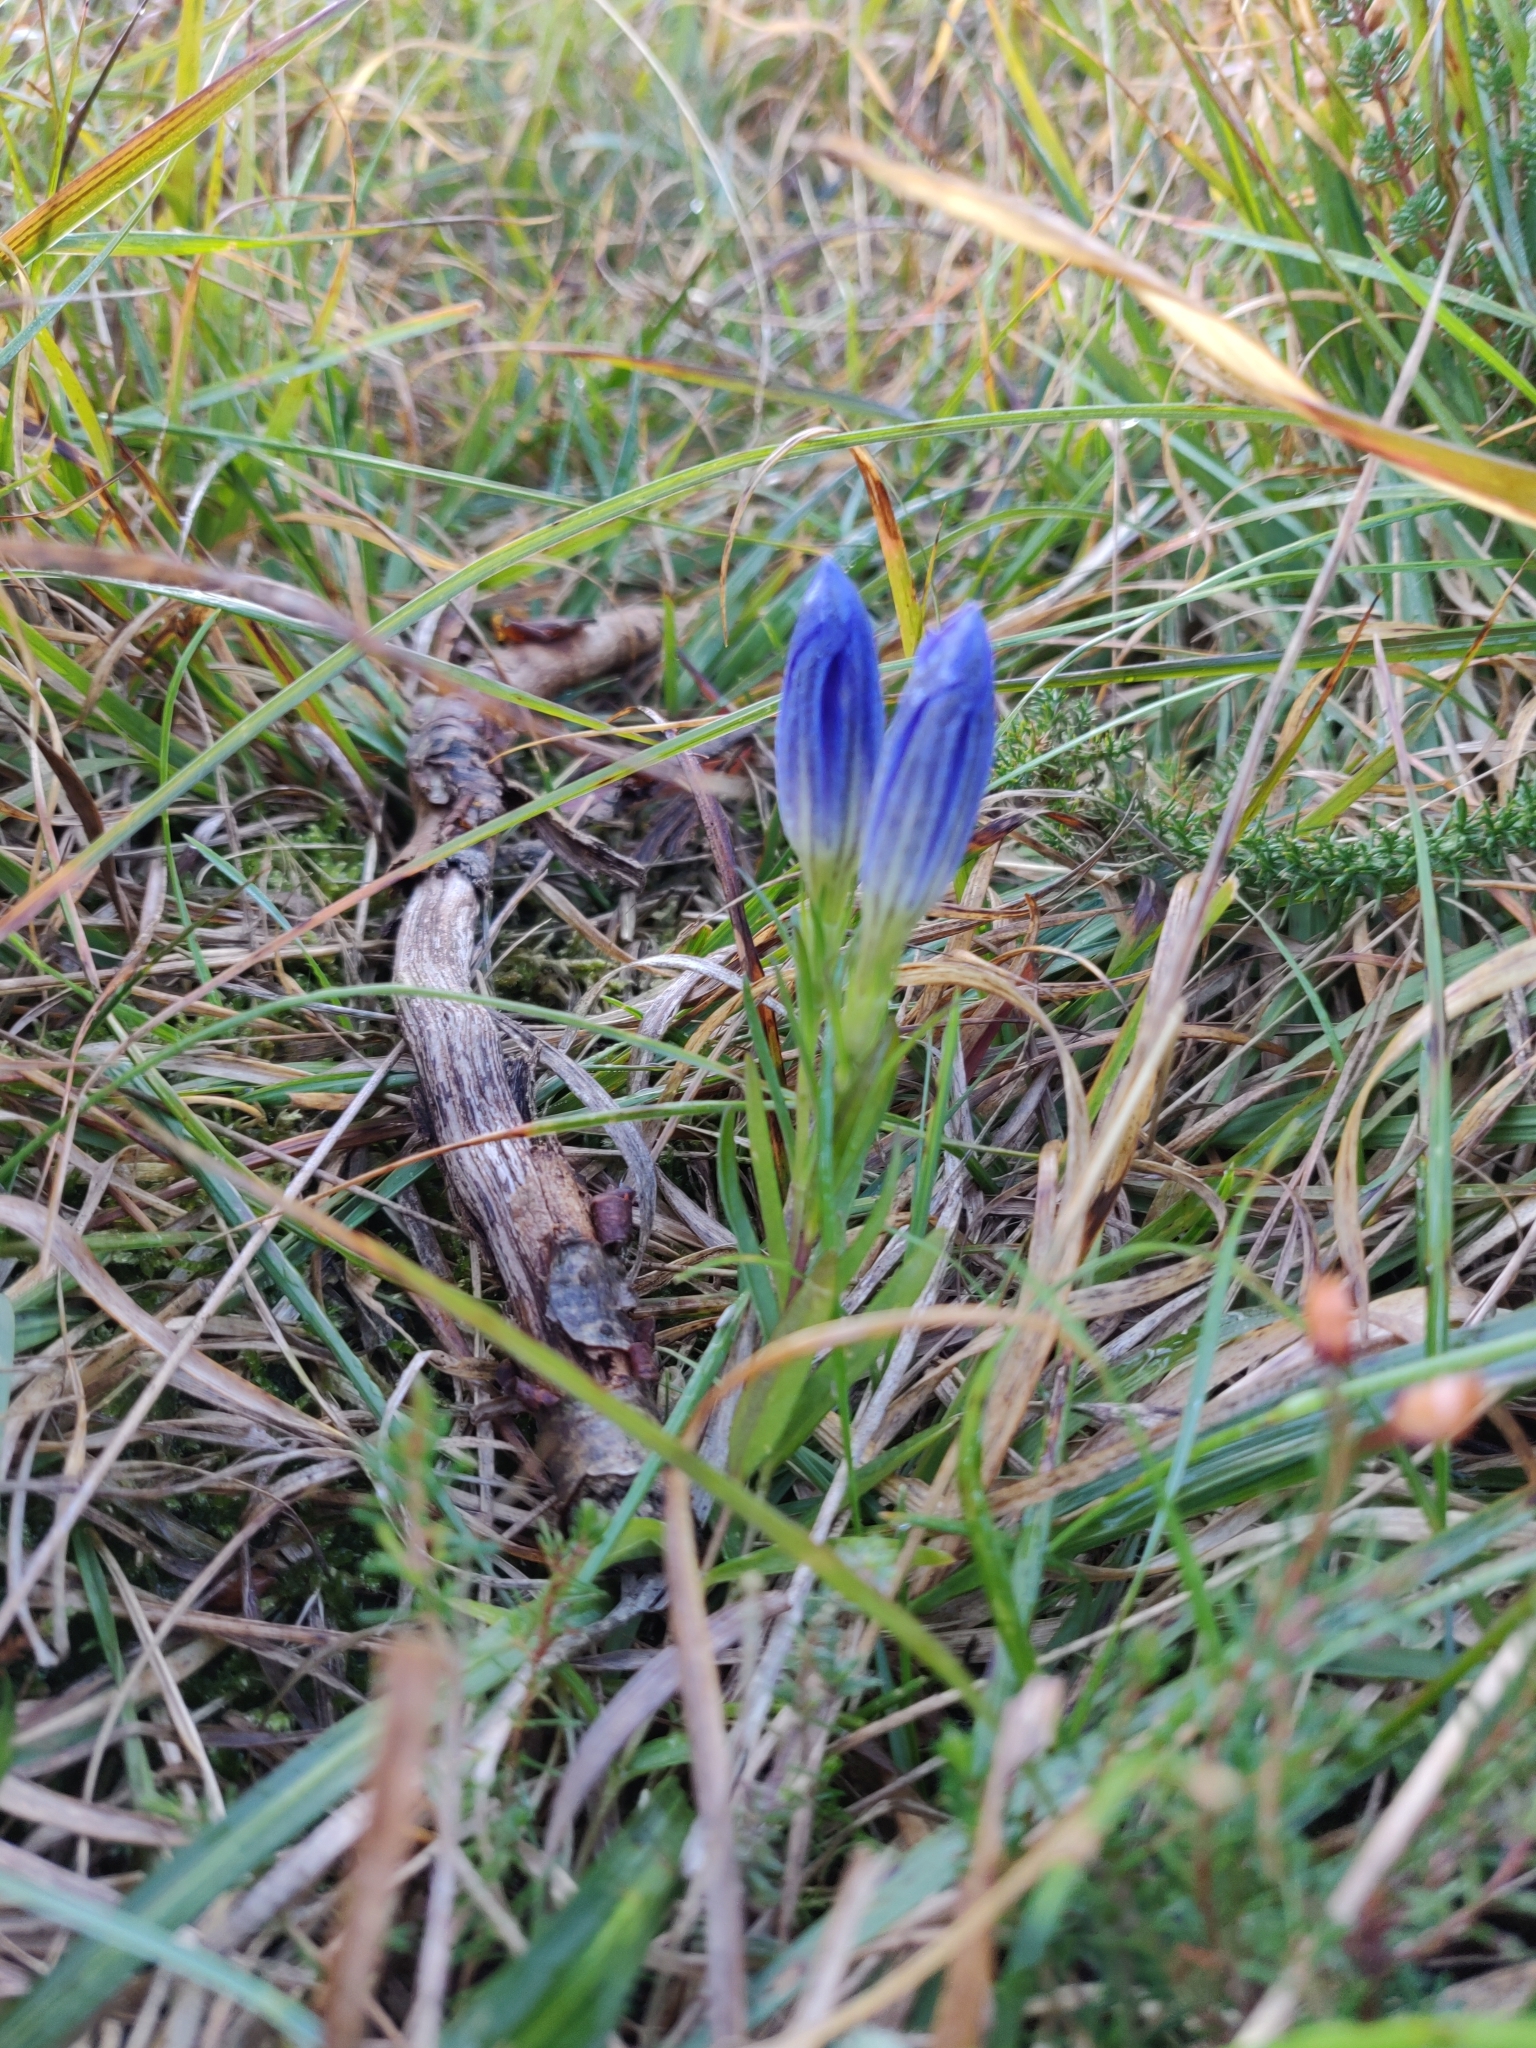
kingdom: Plantae
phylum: Tracheophyta
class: Magnoliopsida
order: Gentianales
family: Gentianaceae
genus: Gentiana
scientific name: Gentiana pneumonanthe
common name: Marsh gentian
